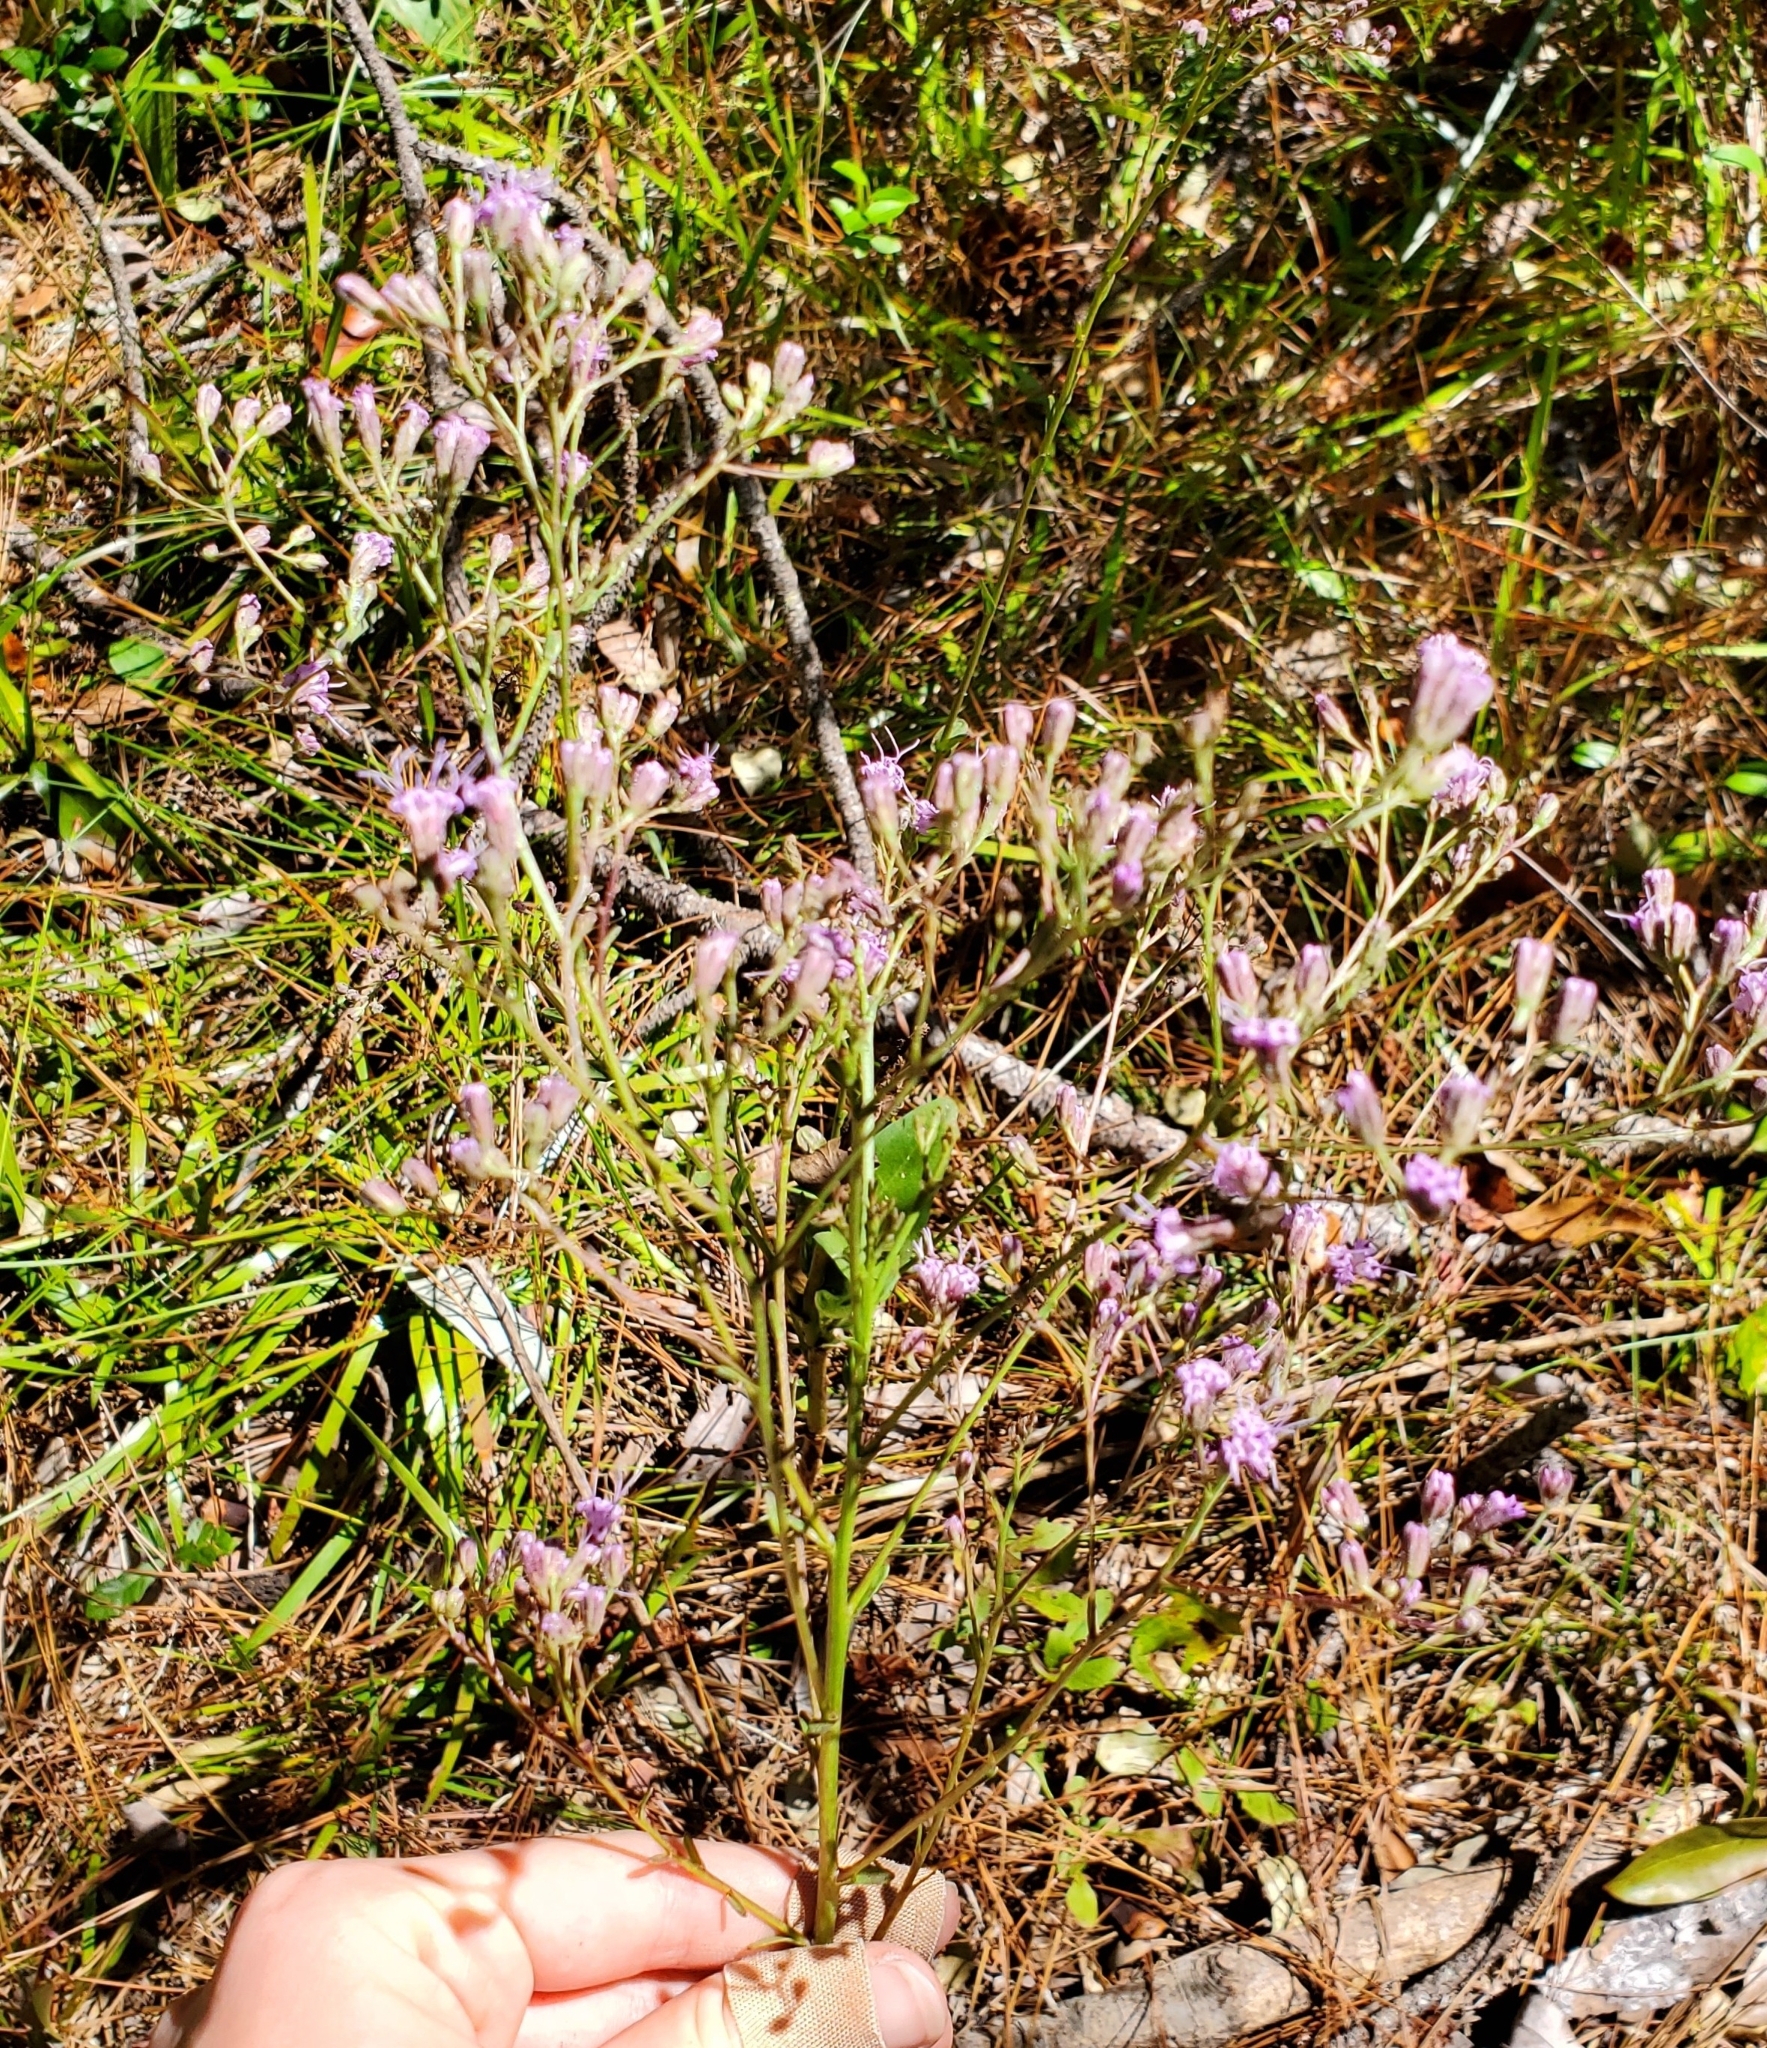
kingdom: Plantae
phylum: Tracheophyta
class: Magnoliopsida
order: Asterales
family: Asteraceae
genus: Carphephorus
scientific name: Carphephorus odoratissimus
